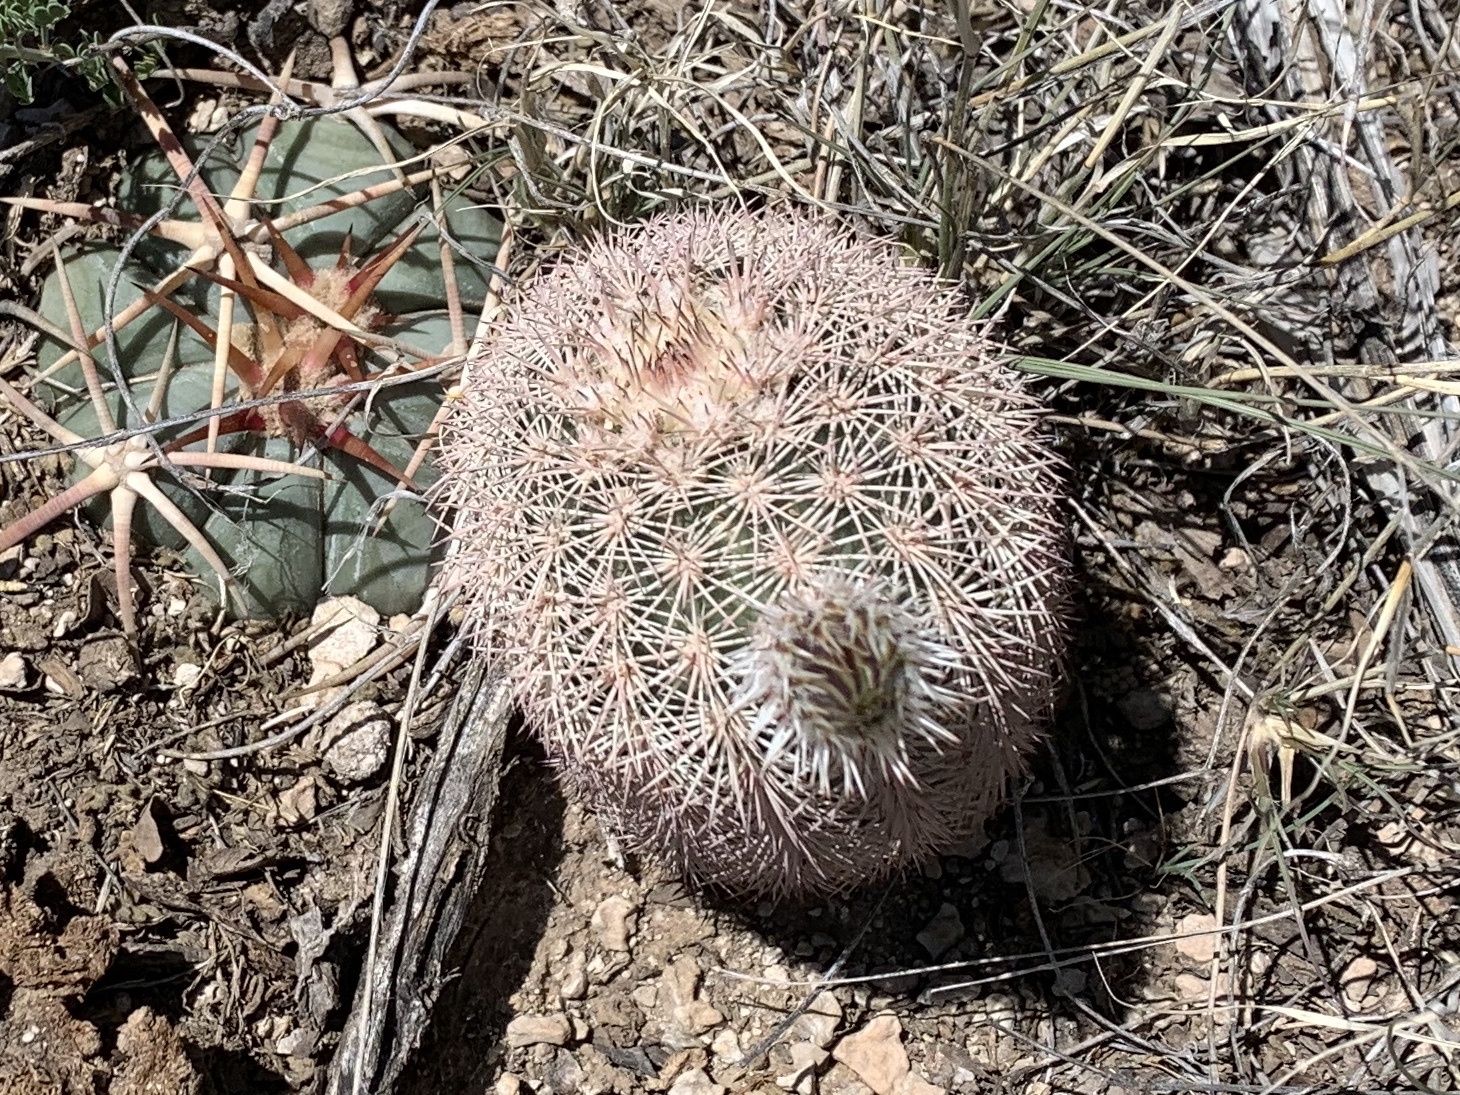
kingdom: Plantae
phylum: Tracheophyta
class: Magnoliopsida
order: Caryophyllales
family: Cactaceae
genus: Echinocereus
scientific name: Echinocereus dasyacanthus
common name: Spiny hedgehog cactus
